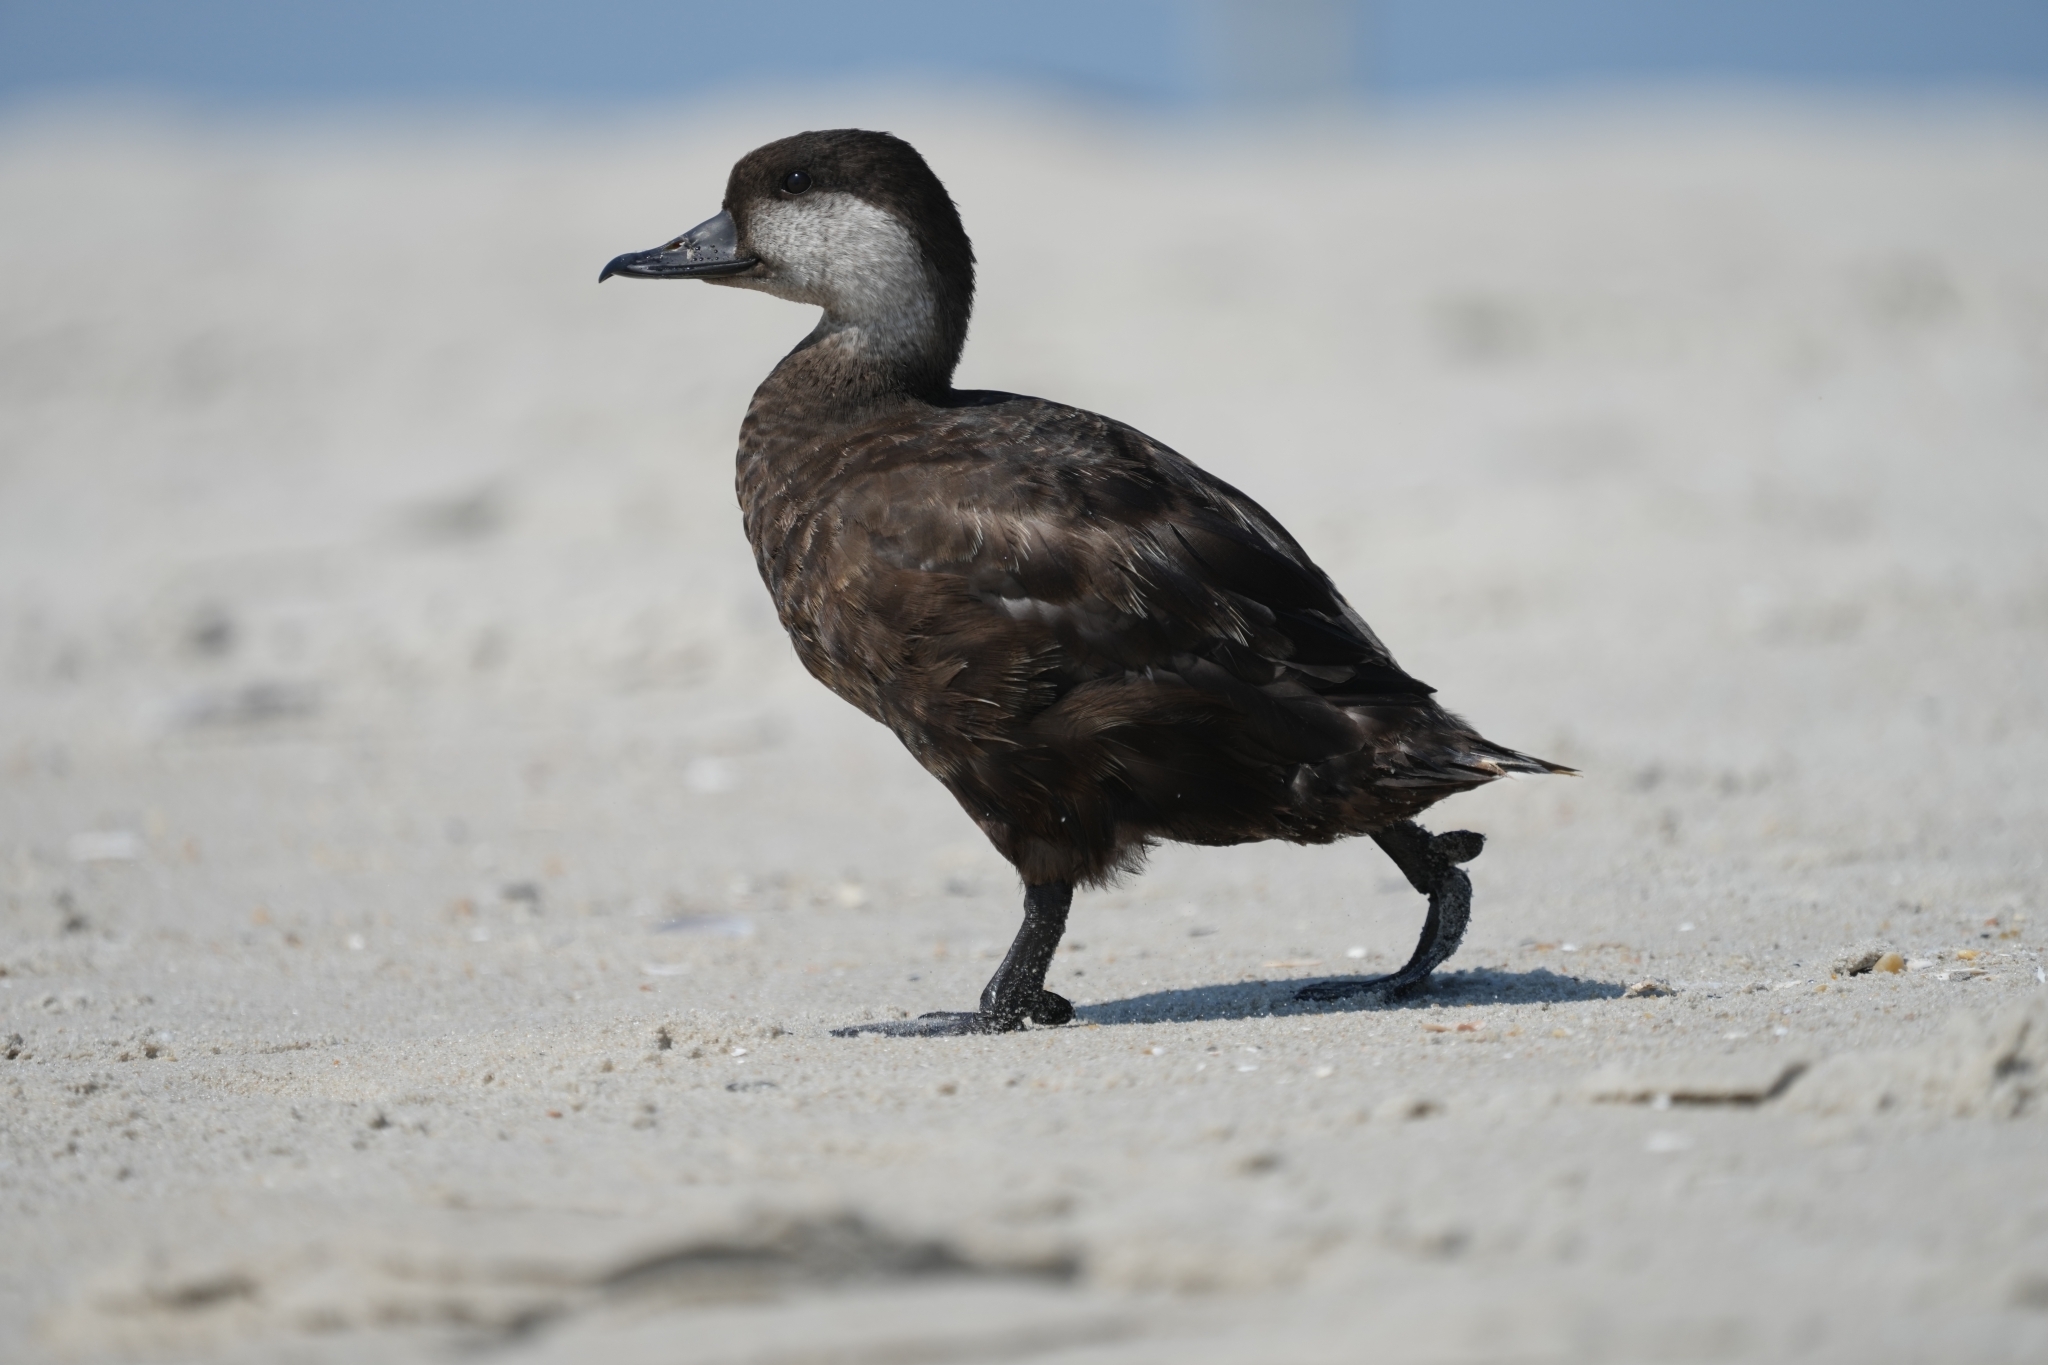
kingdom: Animalia
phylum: Chordata
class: Aves
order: Anseriformes
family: Anatidae
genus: Melanitta
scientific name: Melanitta americana
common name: Black scoter
